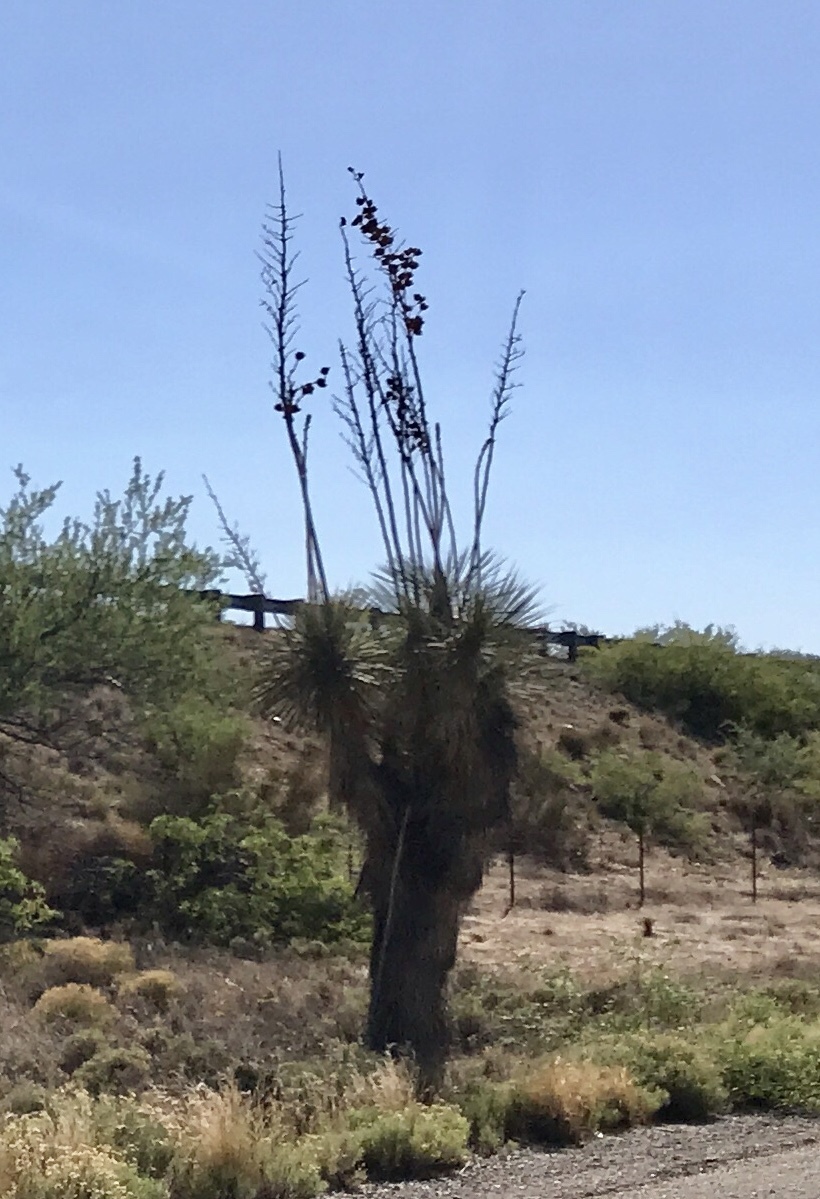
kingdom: Plantae
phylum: Tracheophyta
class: Liliopsida
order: Asparagales
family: Asparagaceae
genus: Yucca
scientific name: Yucca elata
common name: Palmella
